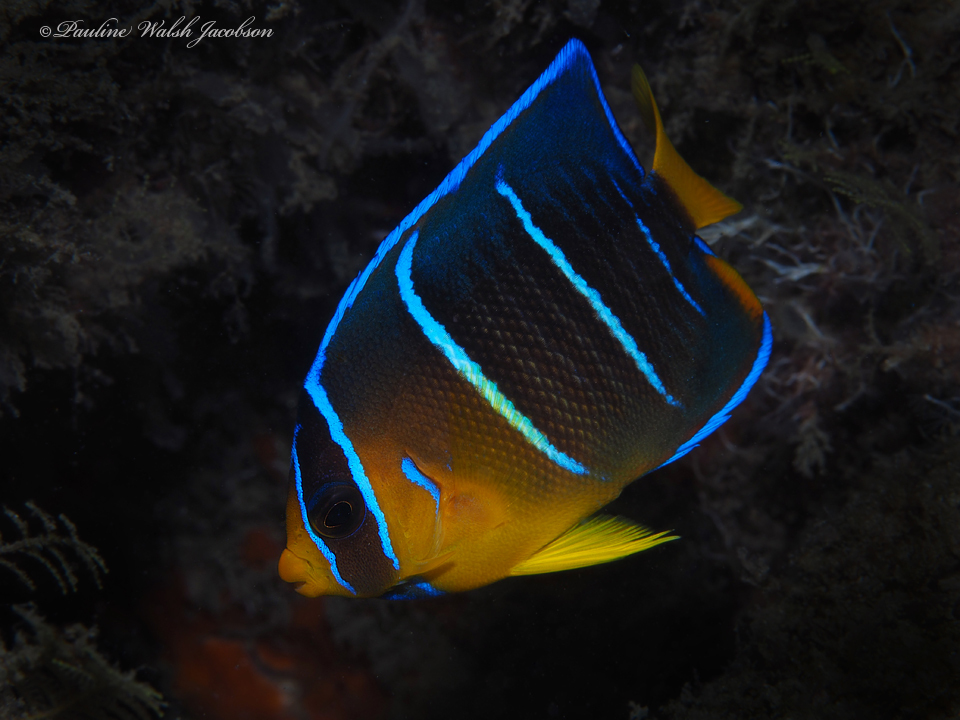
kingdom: Animalia
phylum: Chordata
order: Perciformes
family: Pomacanthidae
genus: Holacanthus
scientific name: Holacanthus bermudensis
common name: Blue angelfish
